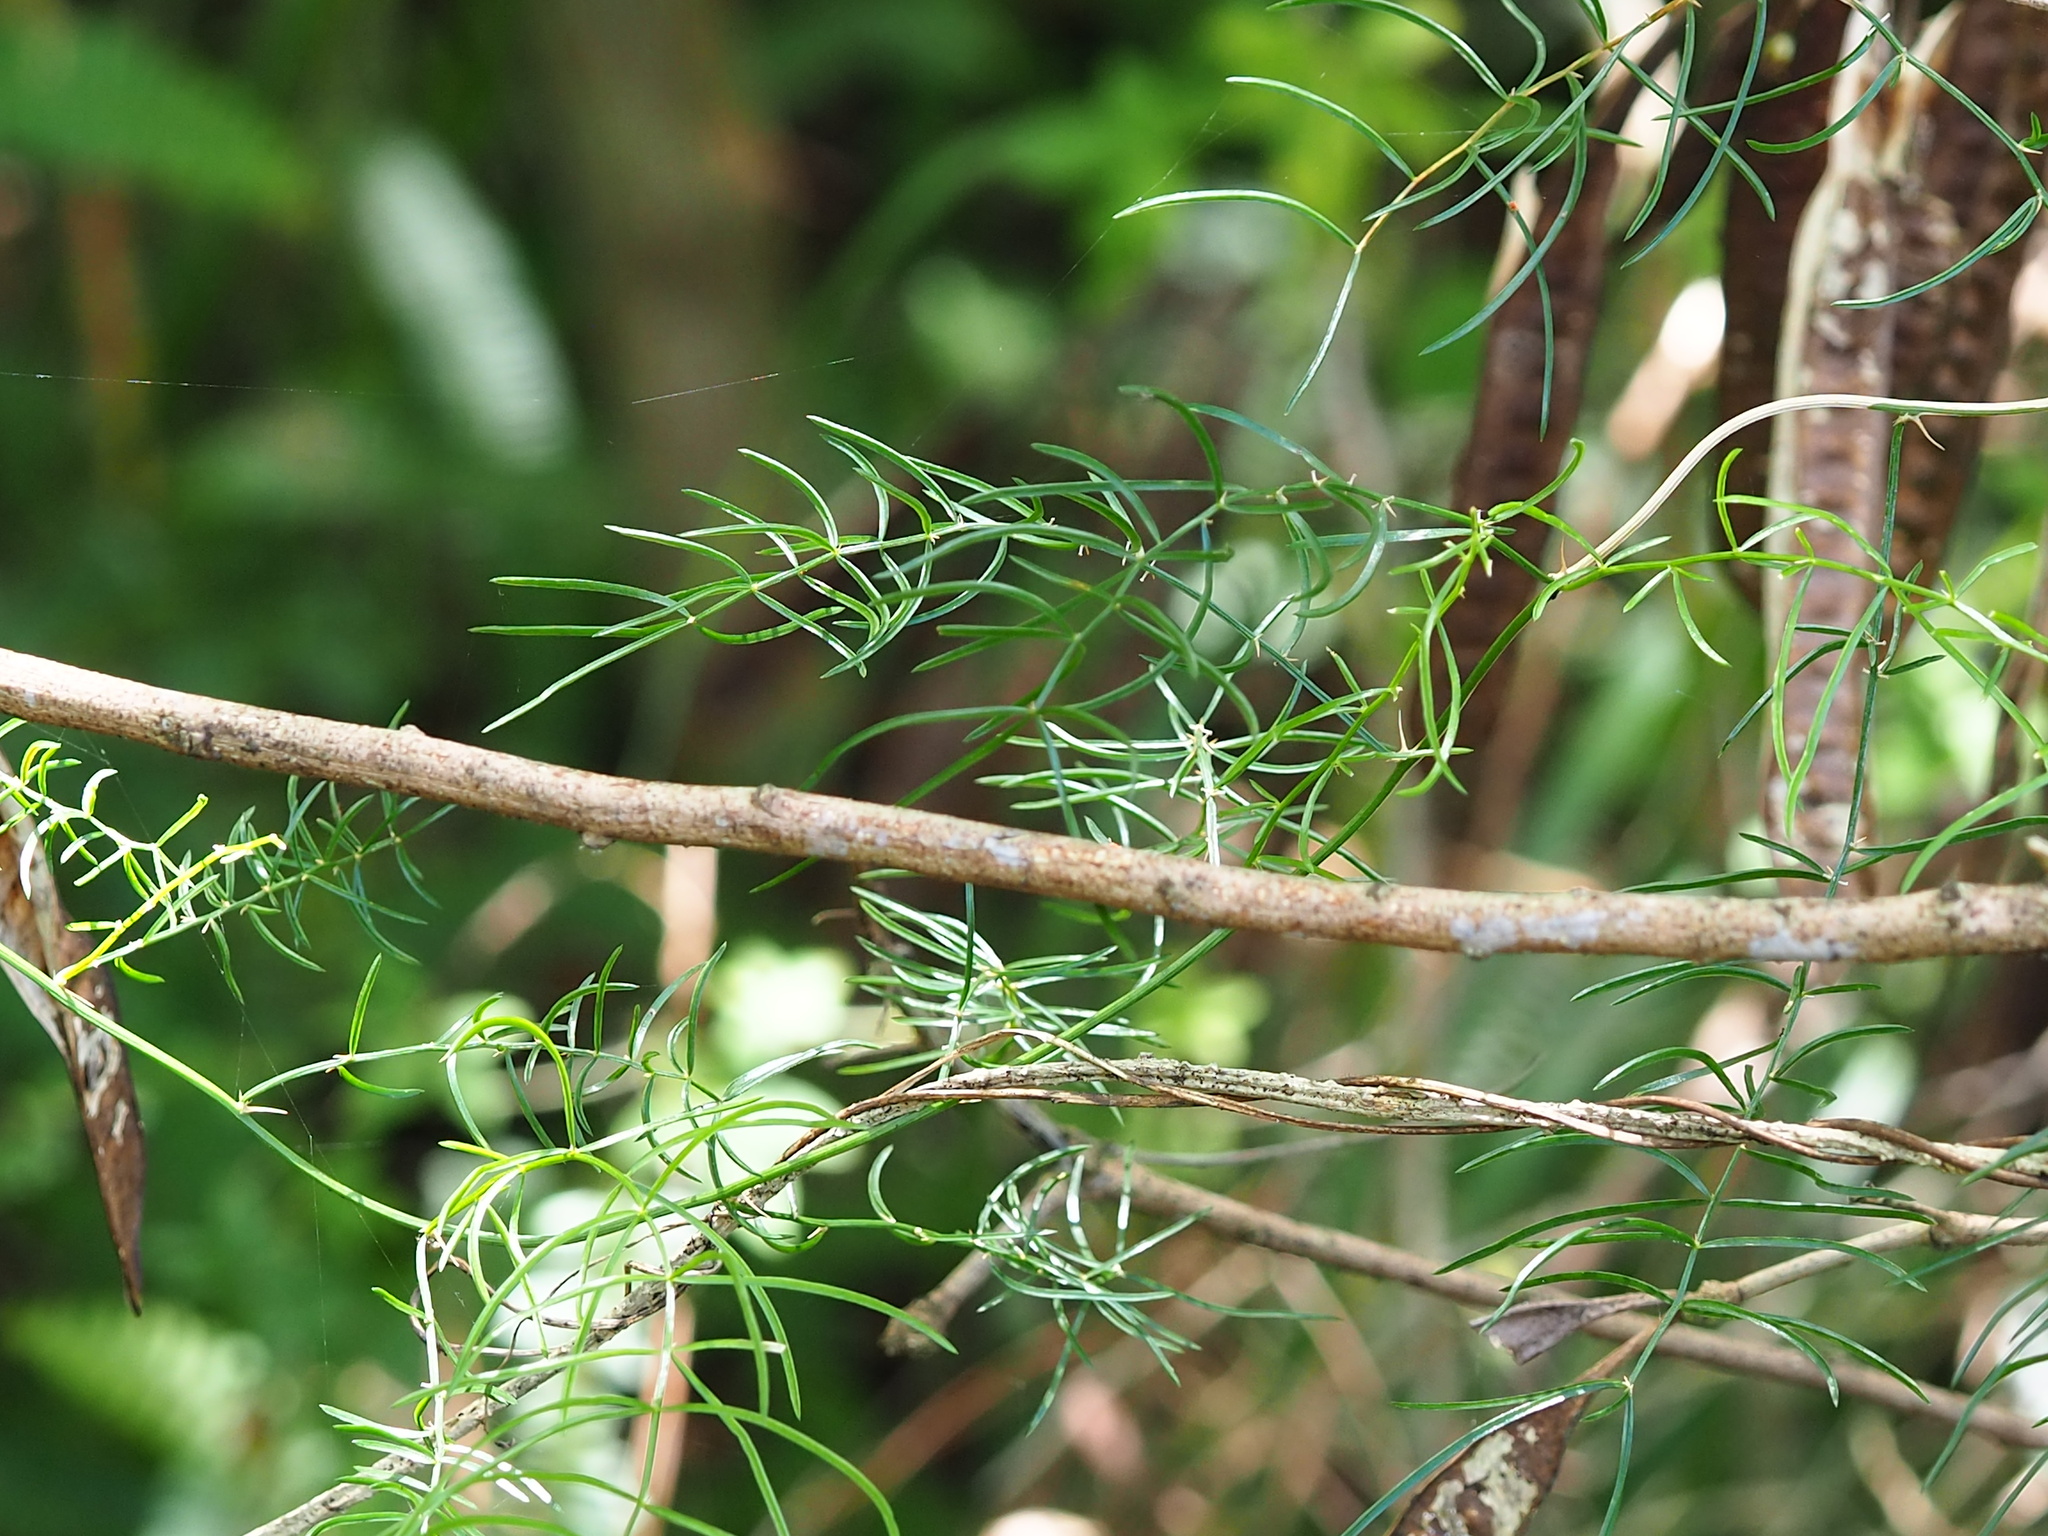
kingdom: Plantae
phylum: Tracheophyta
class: Liliopsida
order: Asparagales
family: Asparagaceae
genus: Asparagus
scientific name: Asparagus cochinchinensis
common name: Chinese asparagus
